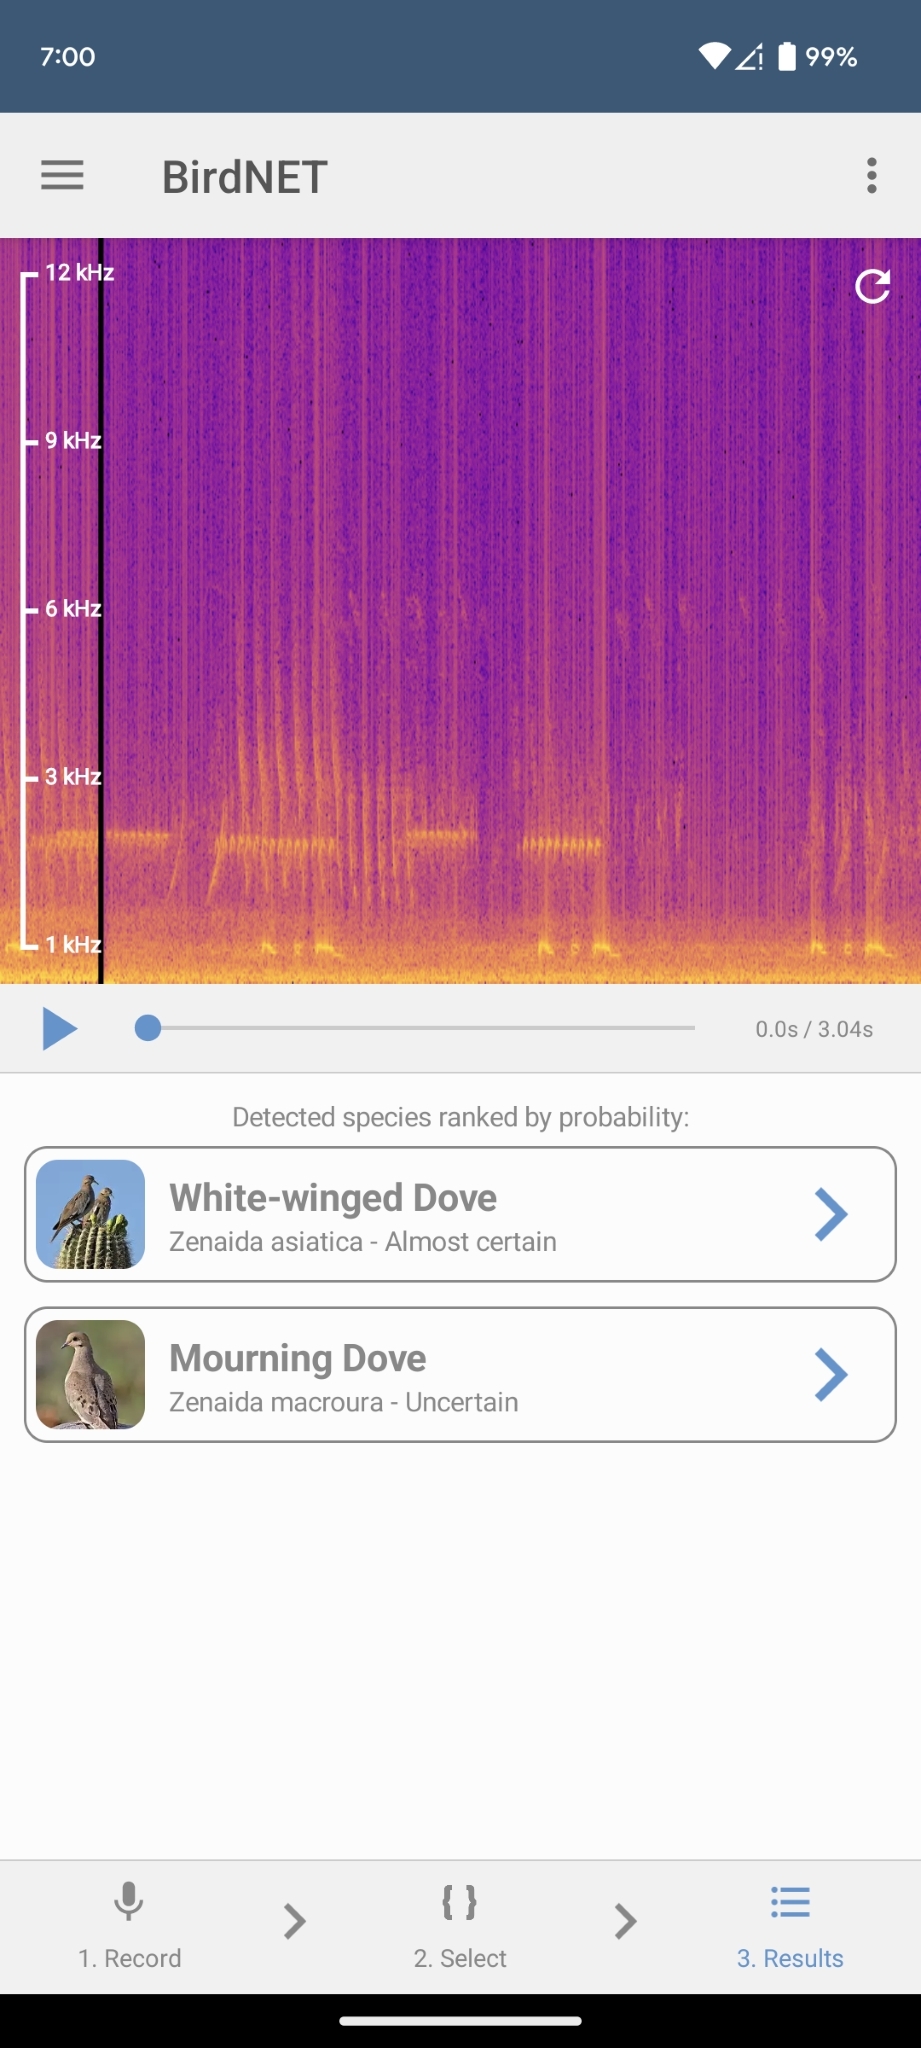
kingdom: Animalia
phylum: Chordata
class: Aves
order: Columbiformes
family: Columbidae
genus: Zenaida
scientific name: Zenaida asiatica
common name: White-winged dove
